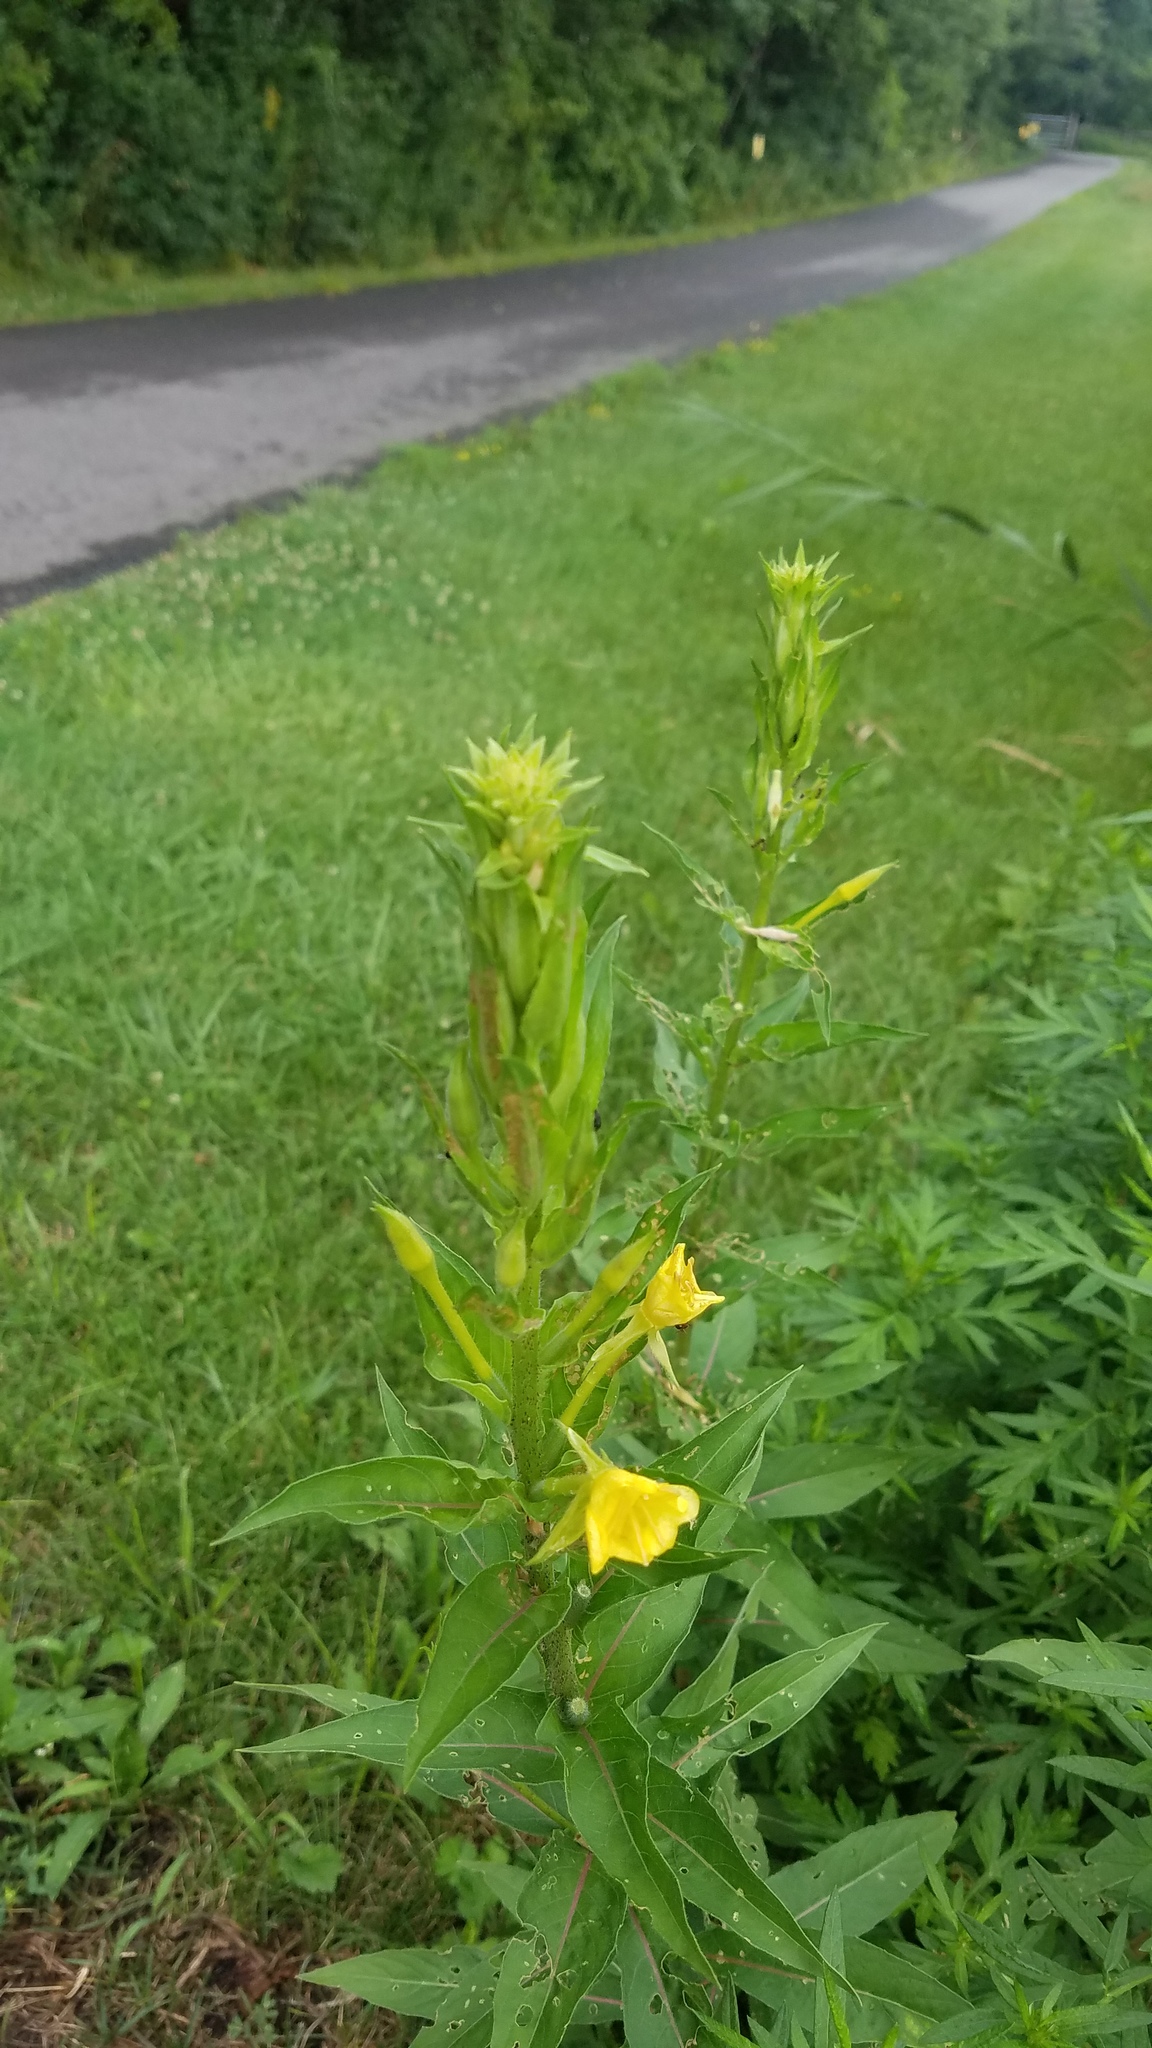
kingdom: Plantae
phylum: Tracheophyta
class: Magnoliopsida
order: Myrtales
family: Onagraceae
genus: Oenothera
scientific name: Oenothera biennis
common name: Common evening-primrose
